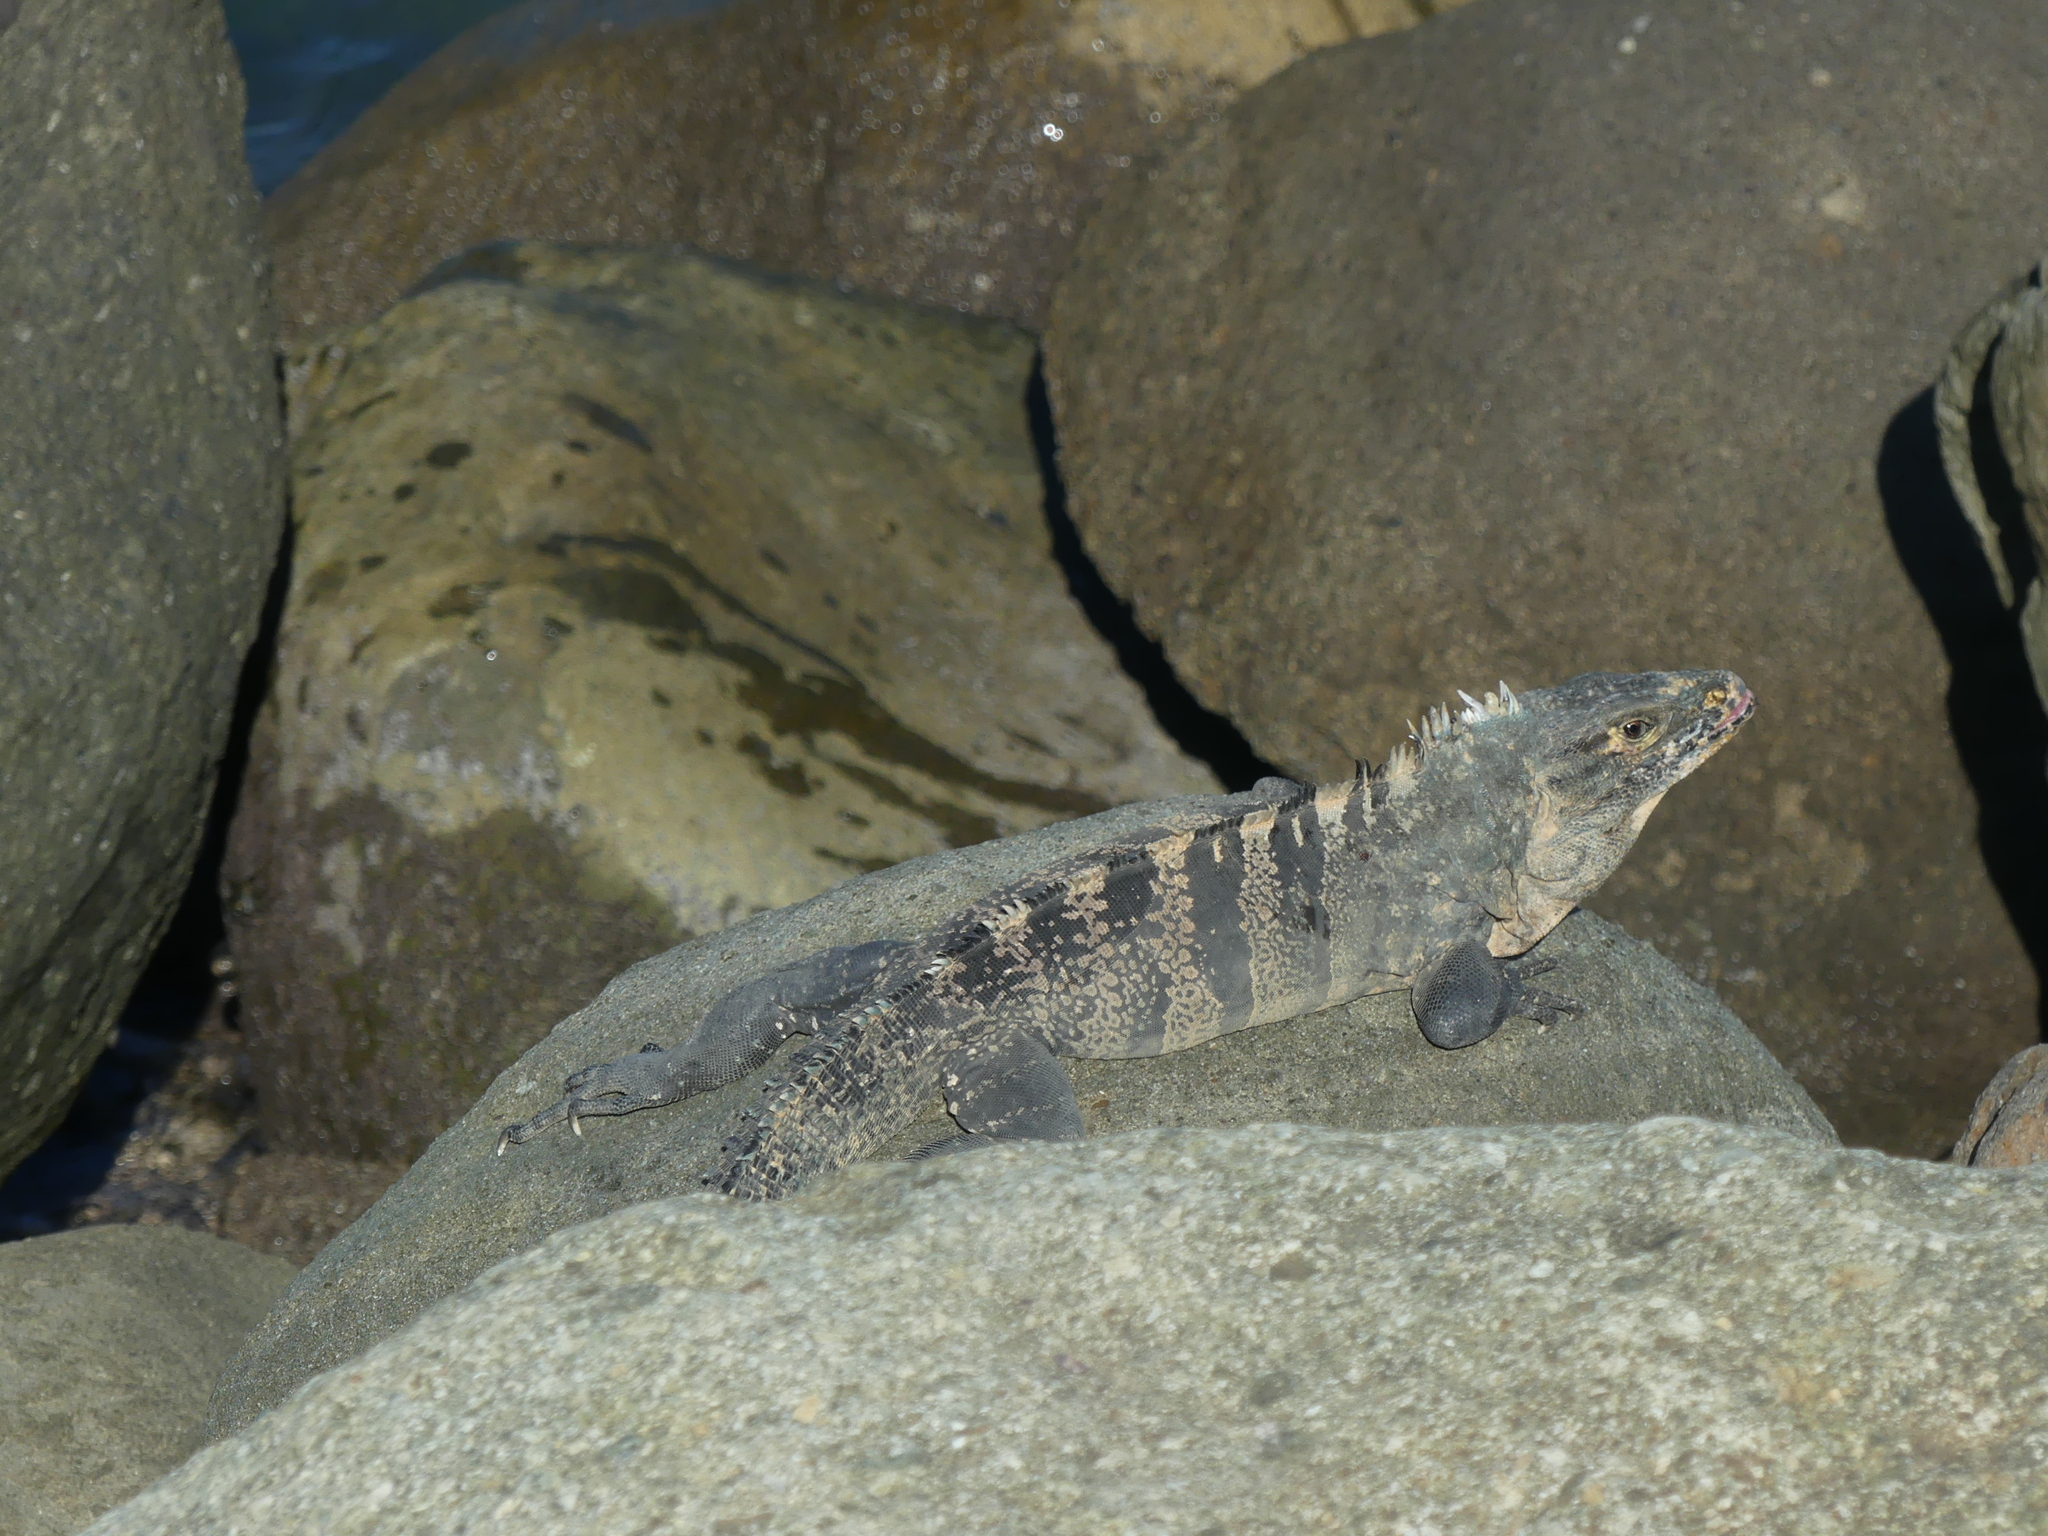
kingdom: Animalia
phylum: Chordata
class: Squamata
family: Iguanidae
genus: Ctenosaura
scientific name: Ctenosaura similis
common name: Black spiny-tailed iguana
